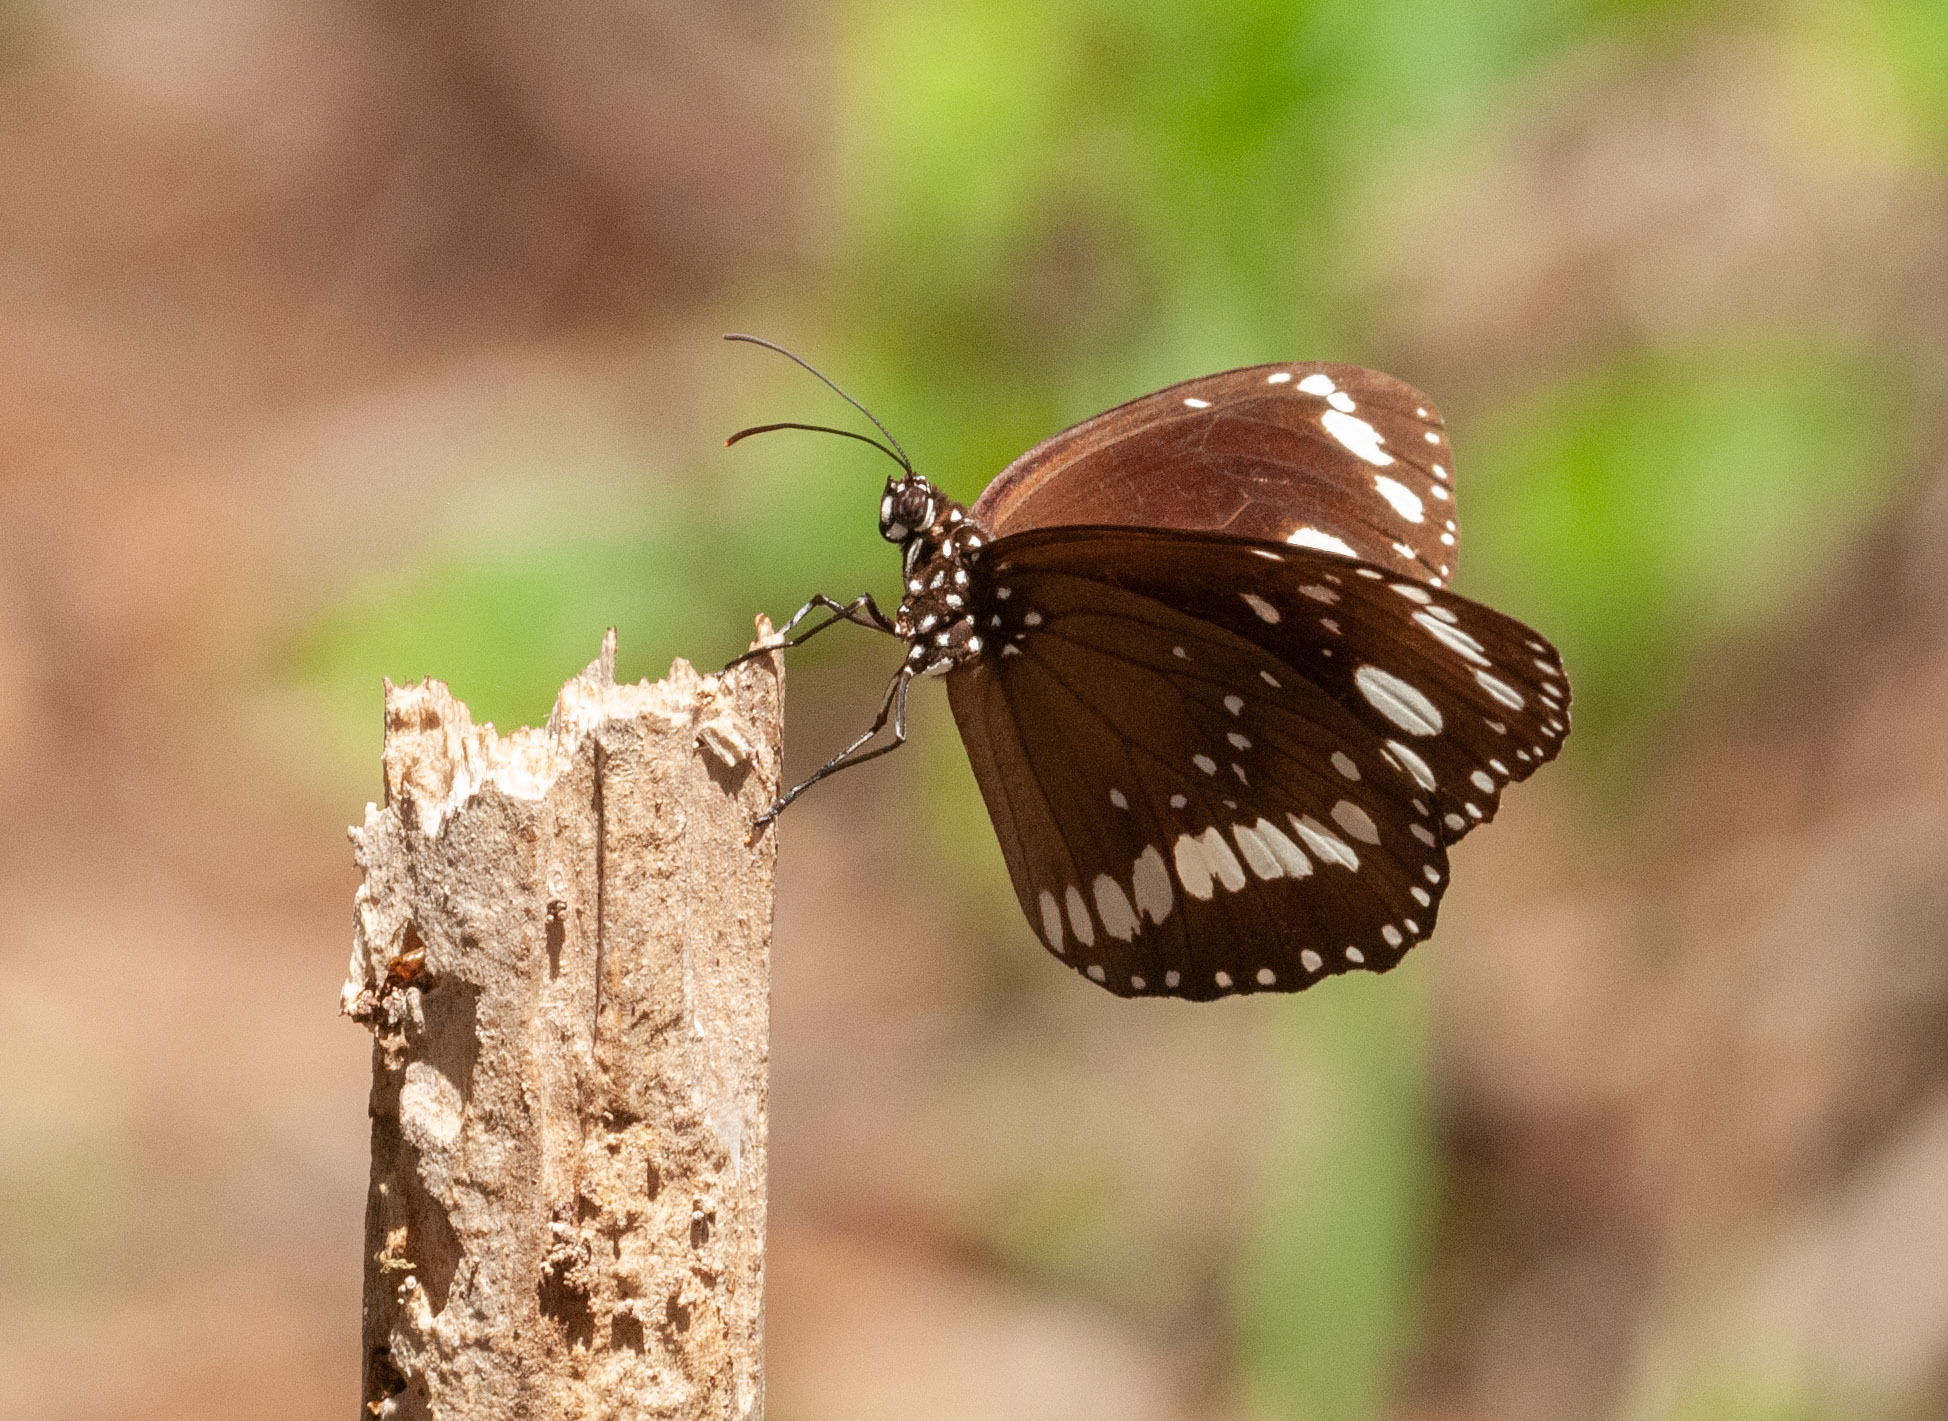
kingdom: Animalia
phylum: Arthropoda
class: Insecta
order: Lepidoptera
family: Nymphalidae
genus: Euploea
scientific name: Euploea core
